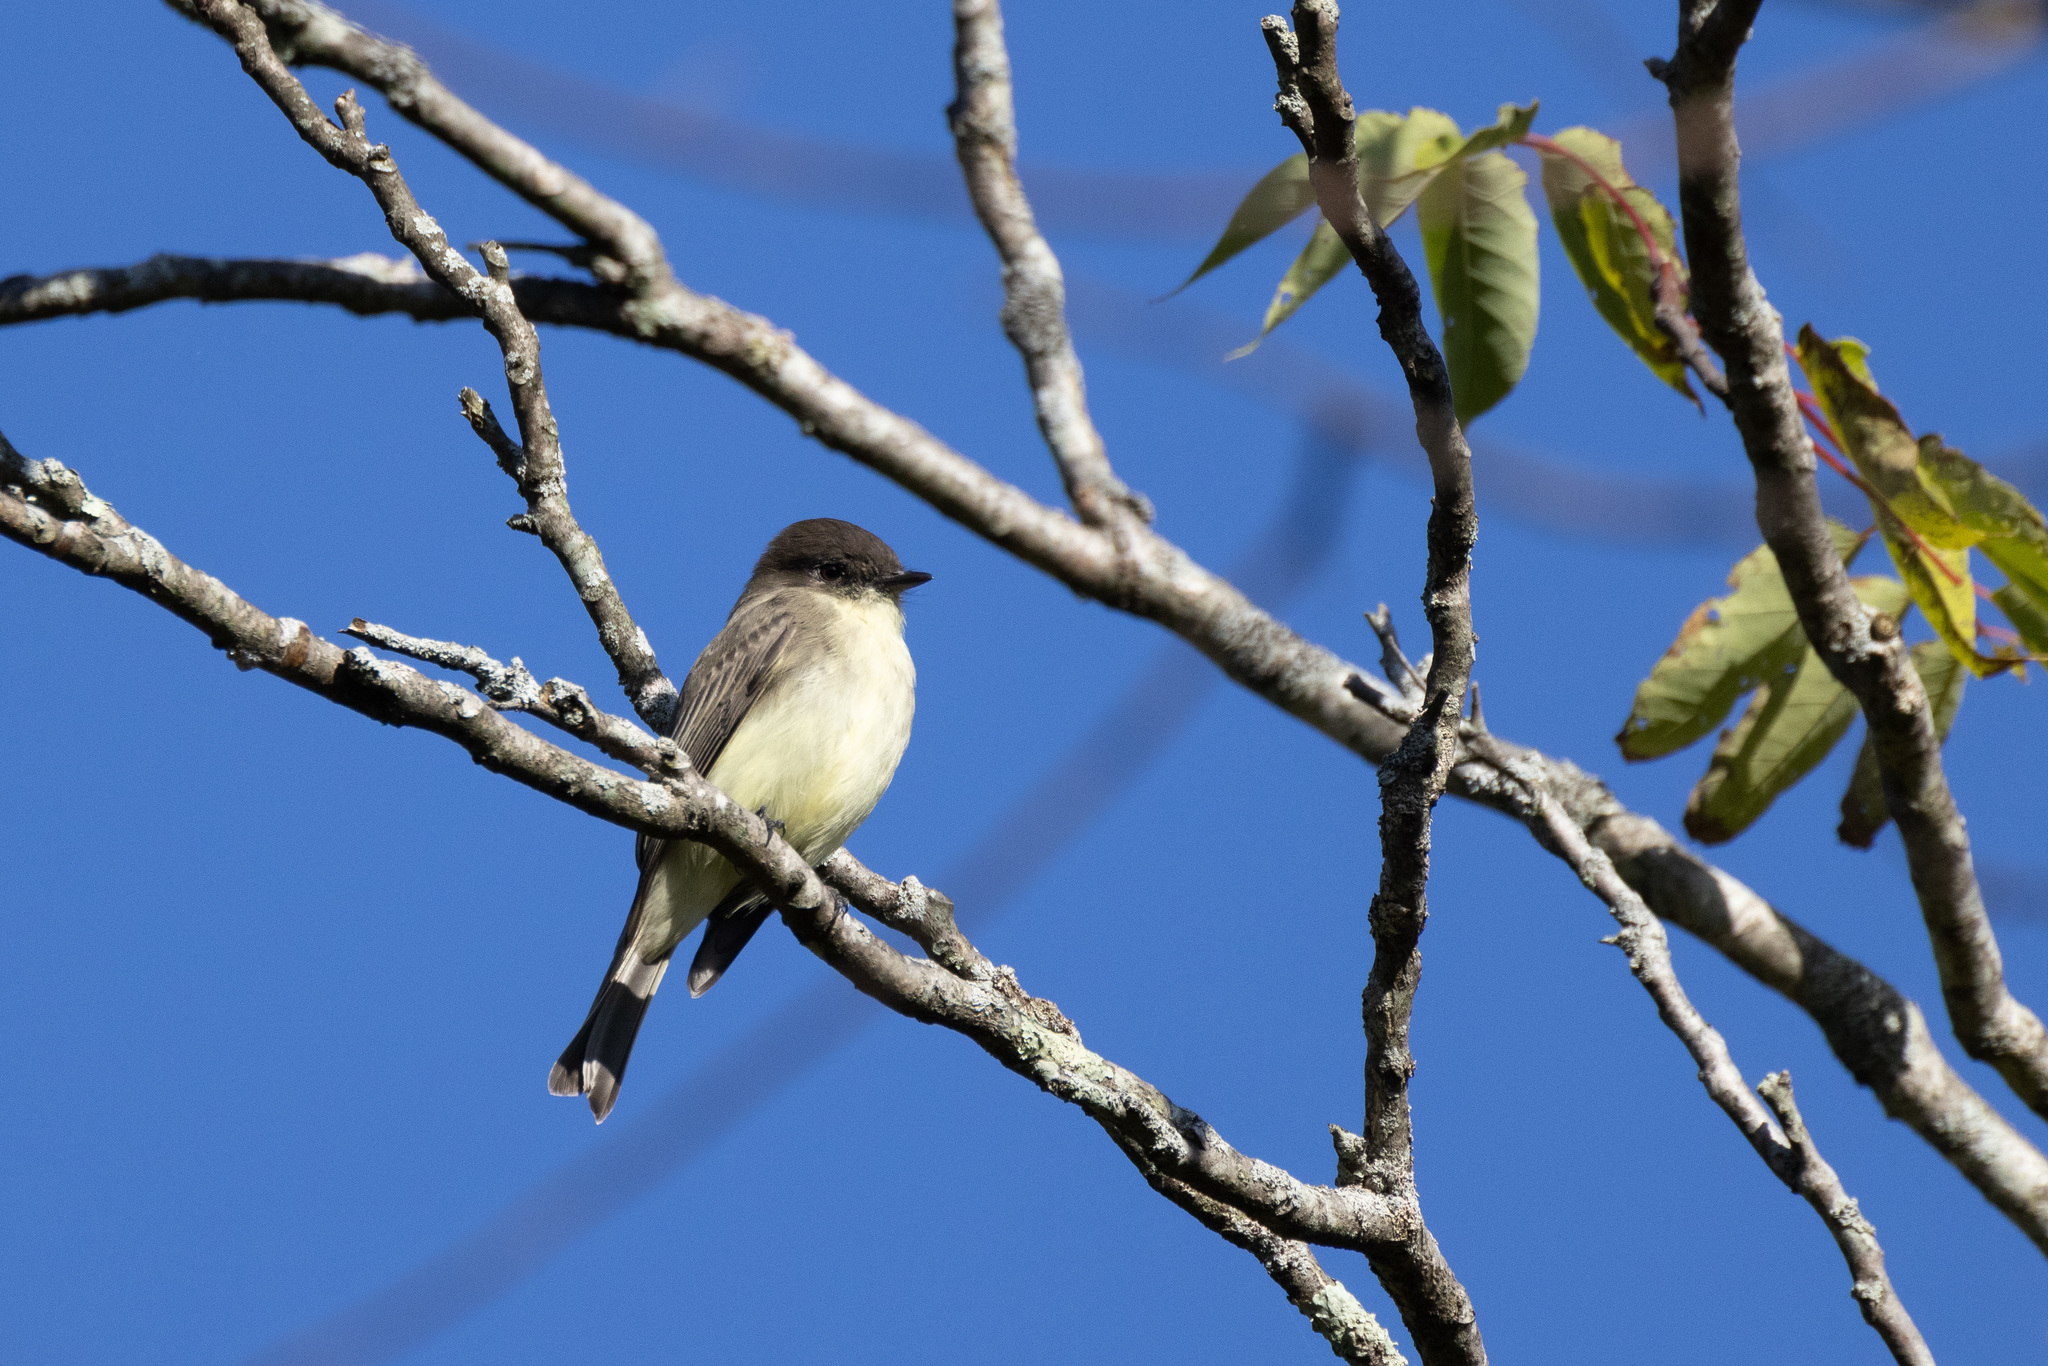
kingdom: Animalia
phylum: Chordata
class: Aves
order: Passeriformes
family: Tyrannidae
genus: Sayornis
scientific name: Sayornis phoebe
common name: Eastern phoebe
